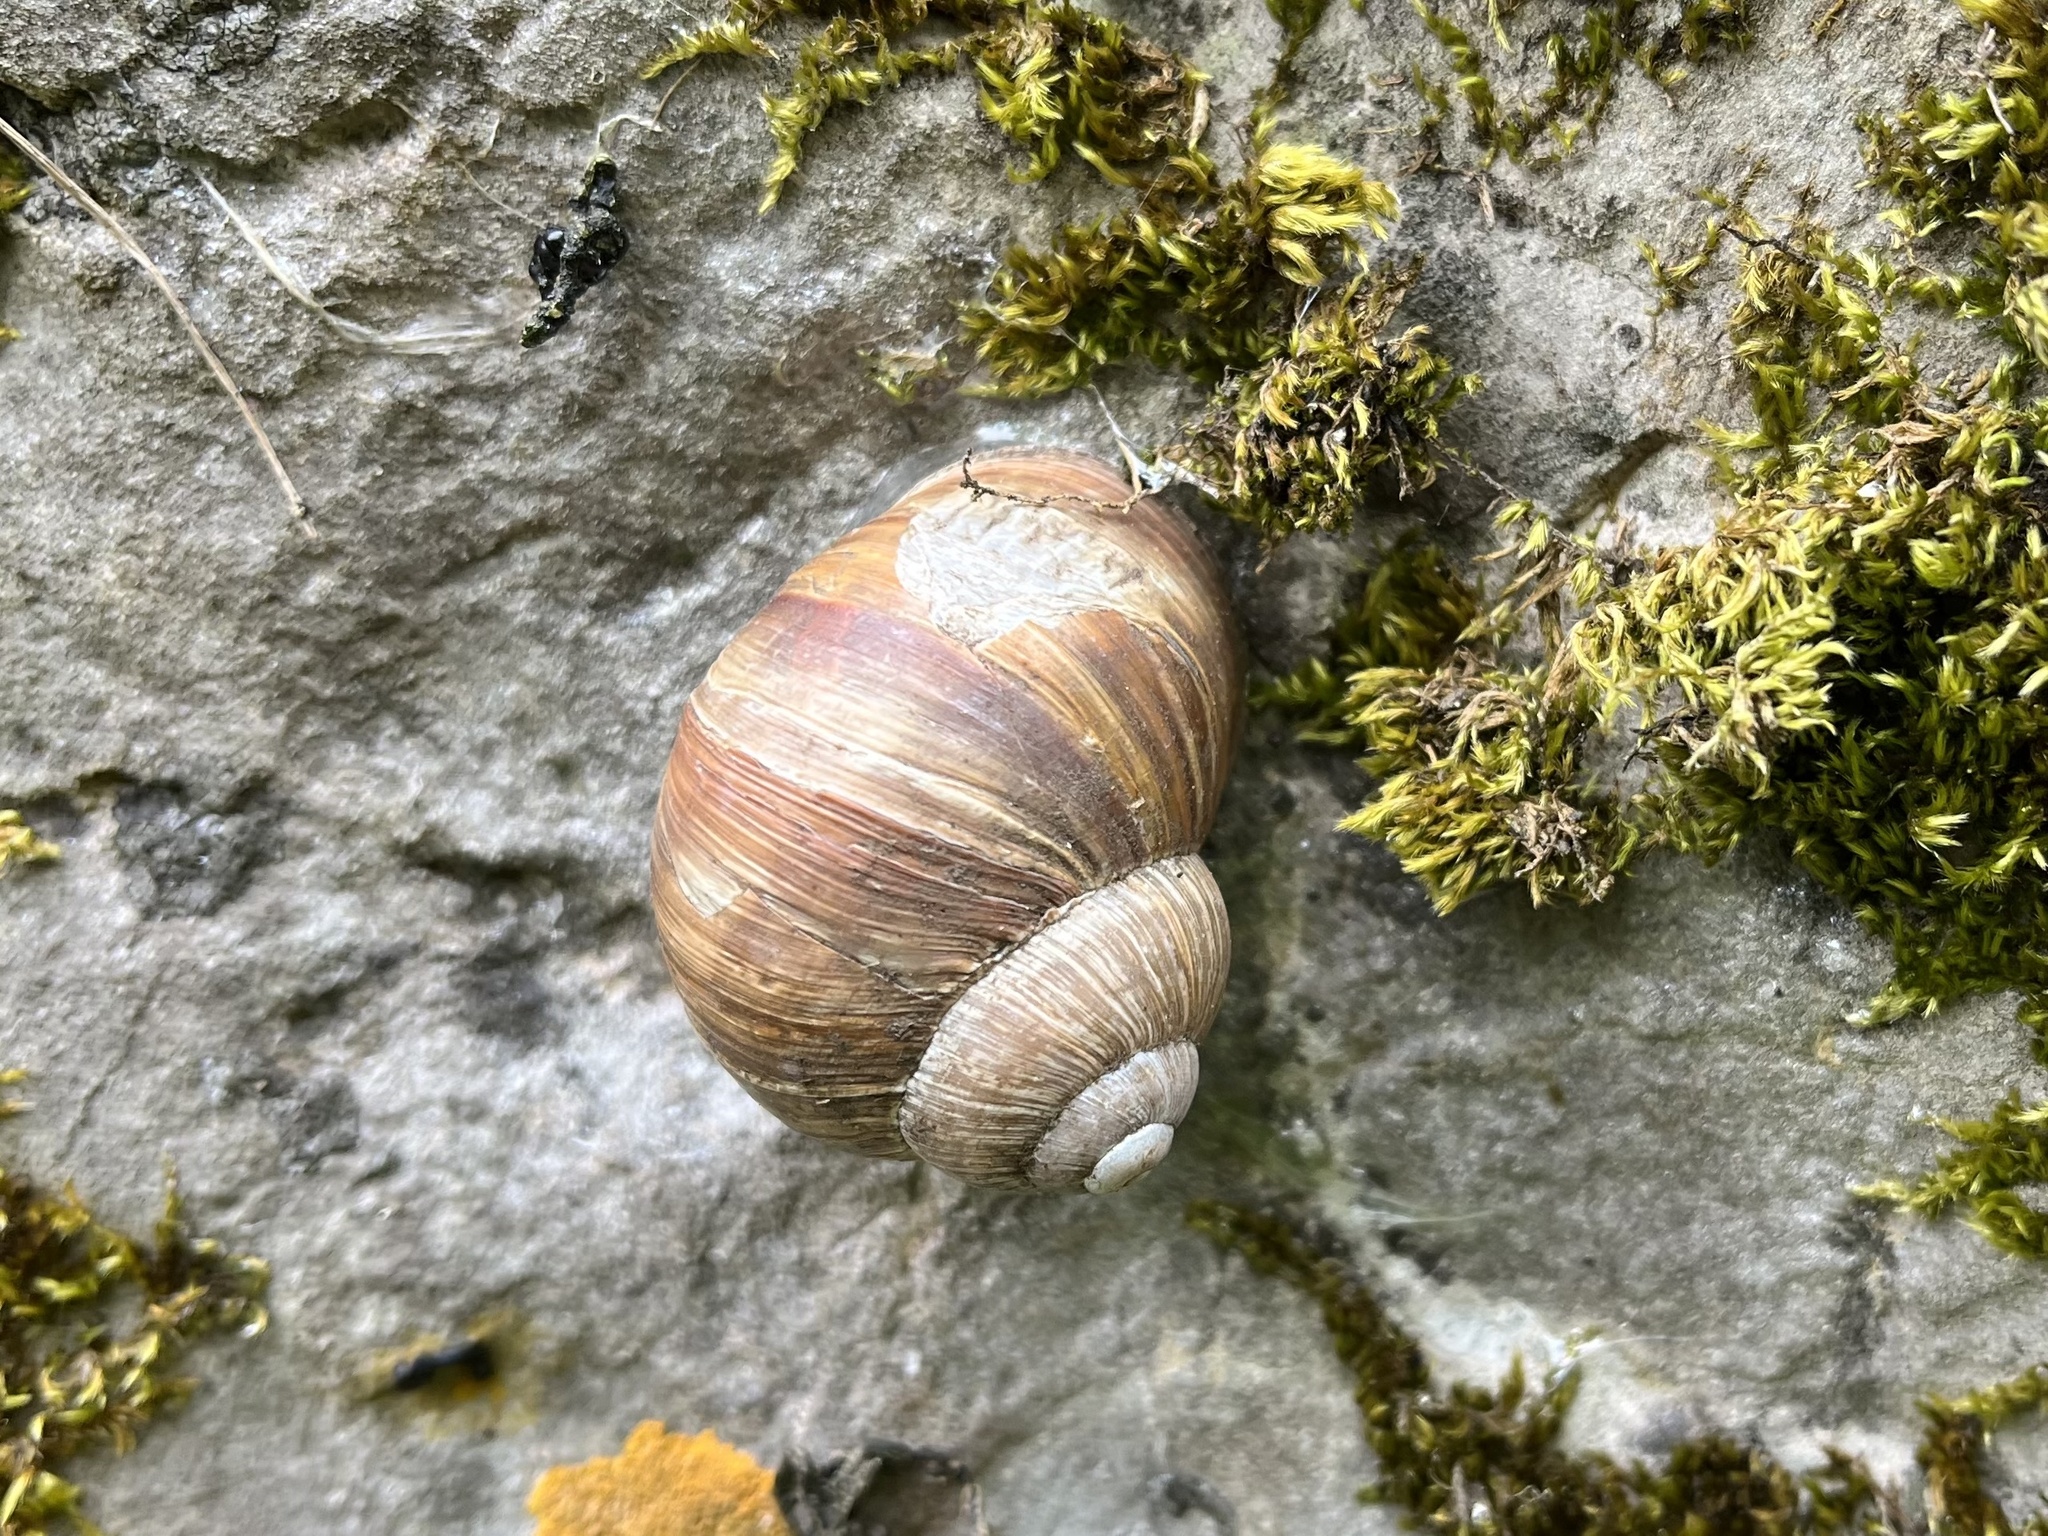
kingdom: Animalia
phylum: Mollusca
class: Gastropoda
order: Stylommatophora
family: Helicidae
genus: Helix
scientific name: Helix pomatia
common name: Roman snail
